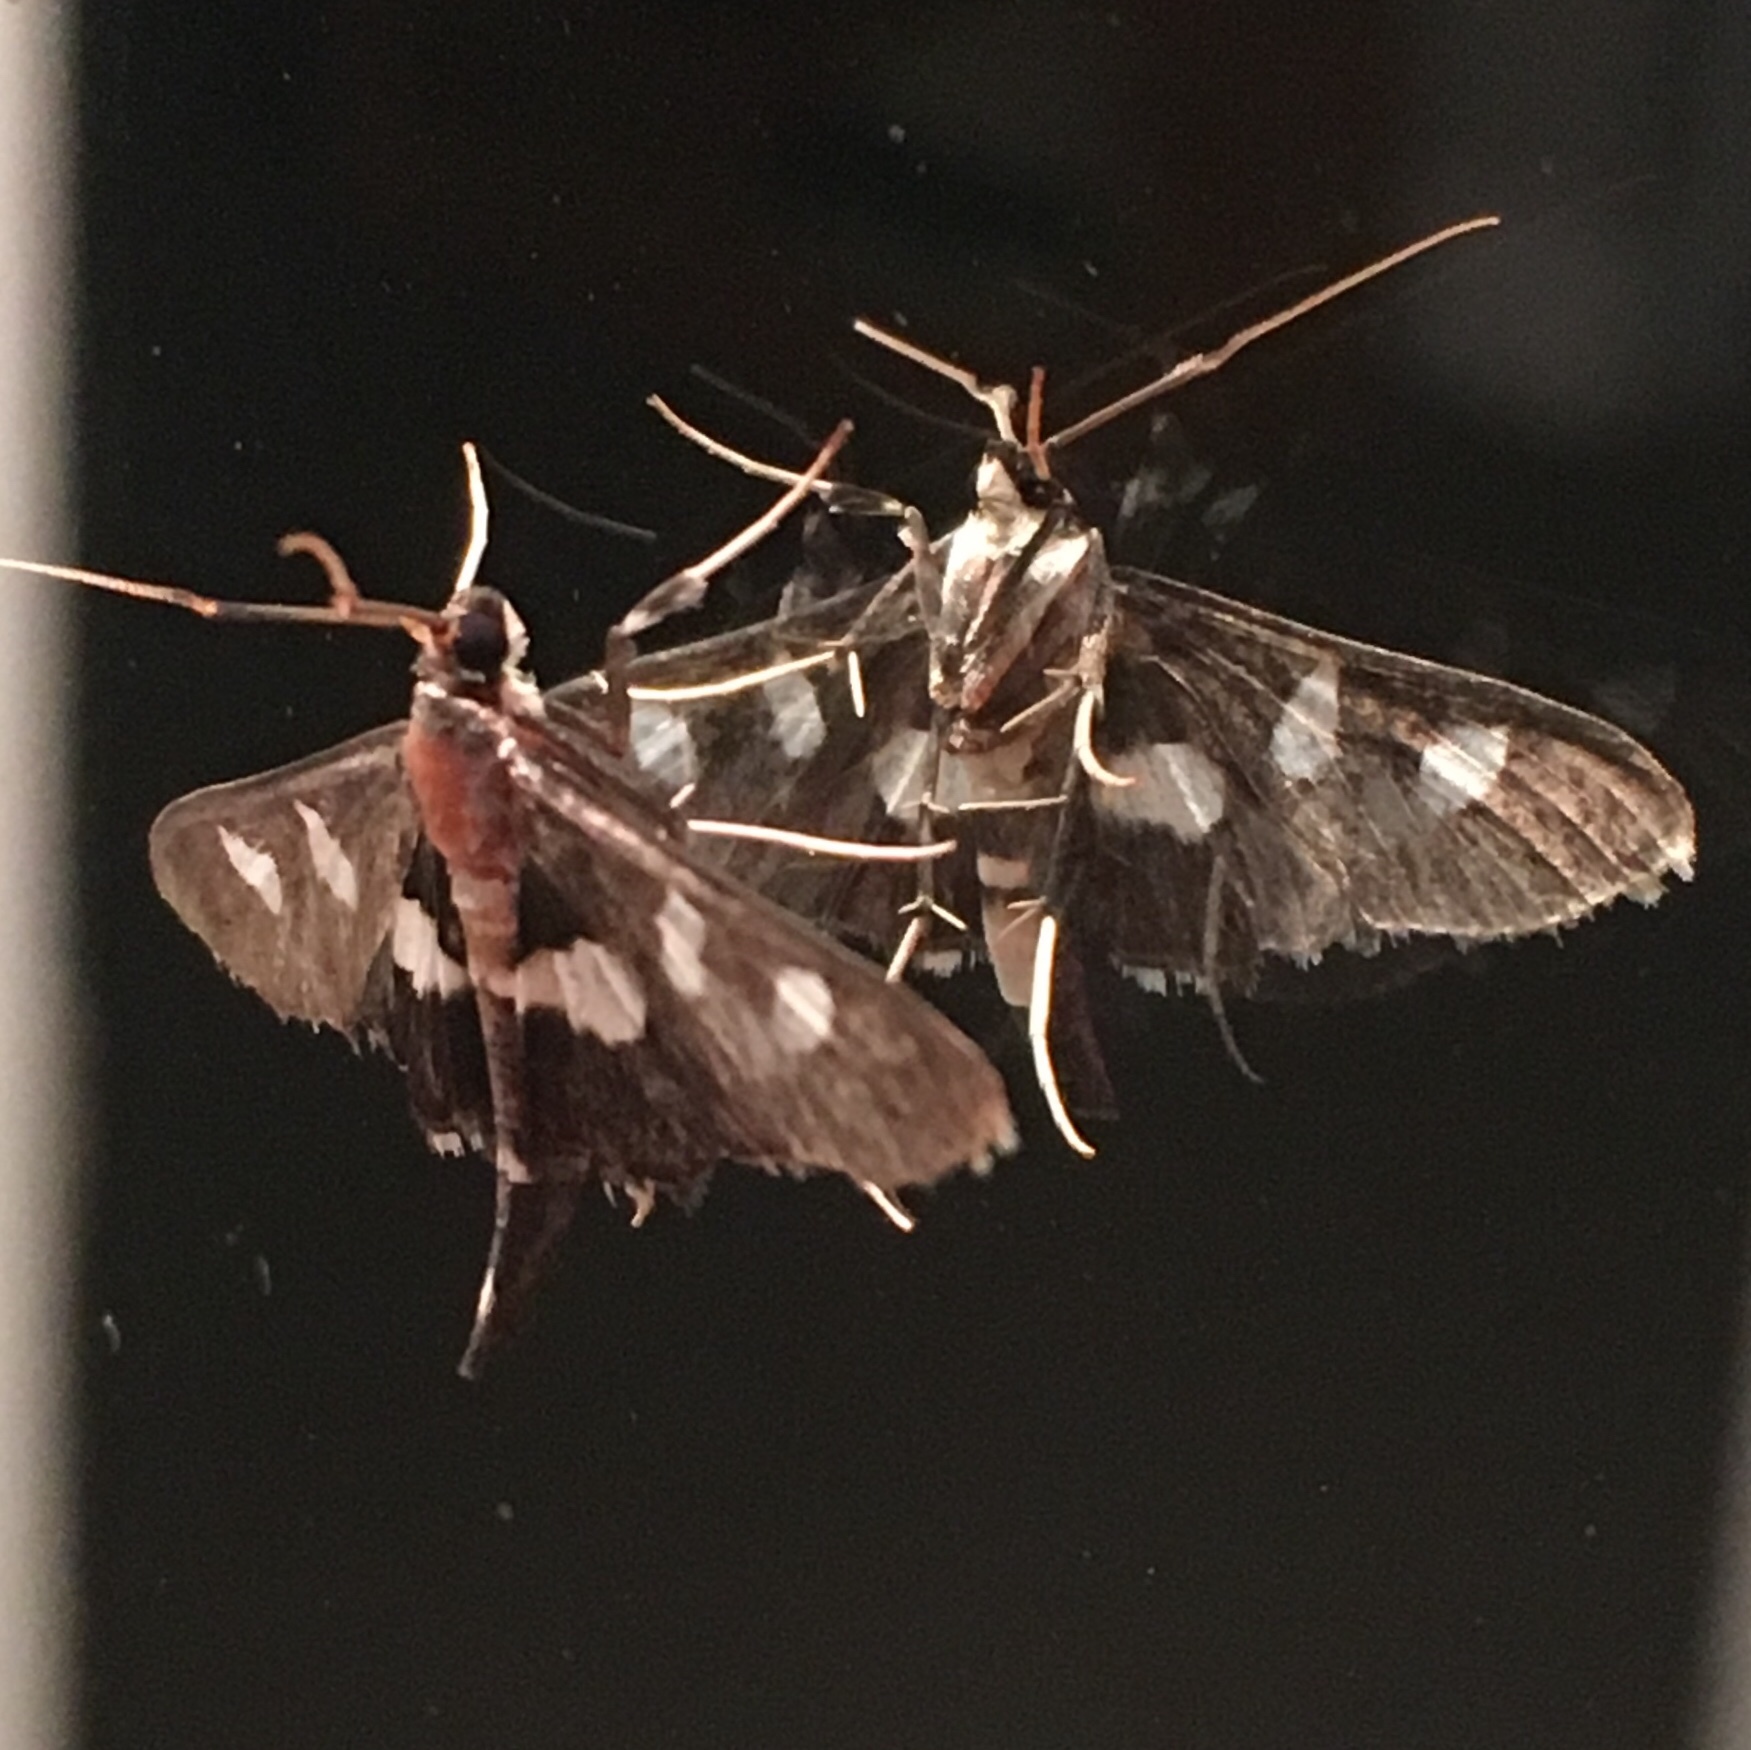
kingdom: Animalia
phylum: Arthropoda
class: Insecta
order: Lepidoptera
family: Crambidae
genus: Desmia
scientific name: Desmia funeralis
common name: Grape leaf folder moth
